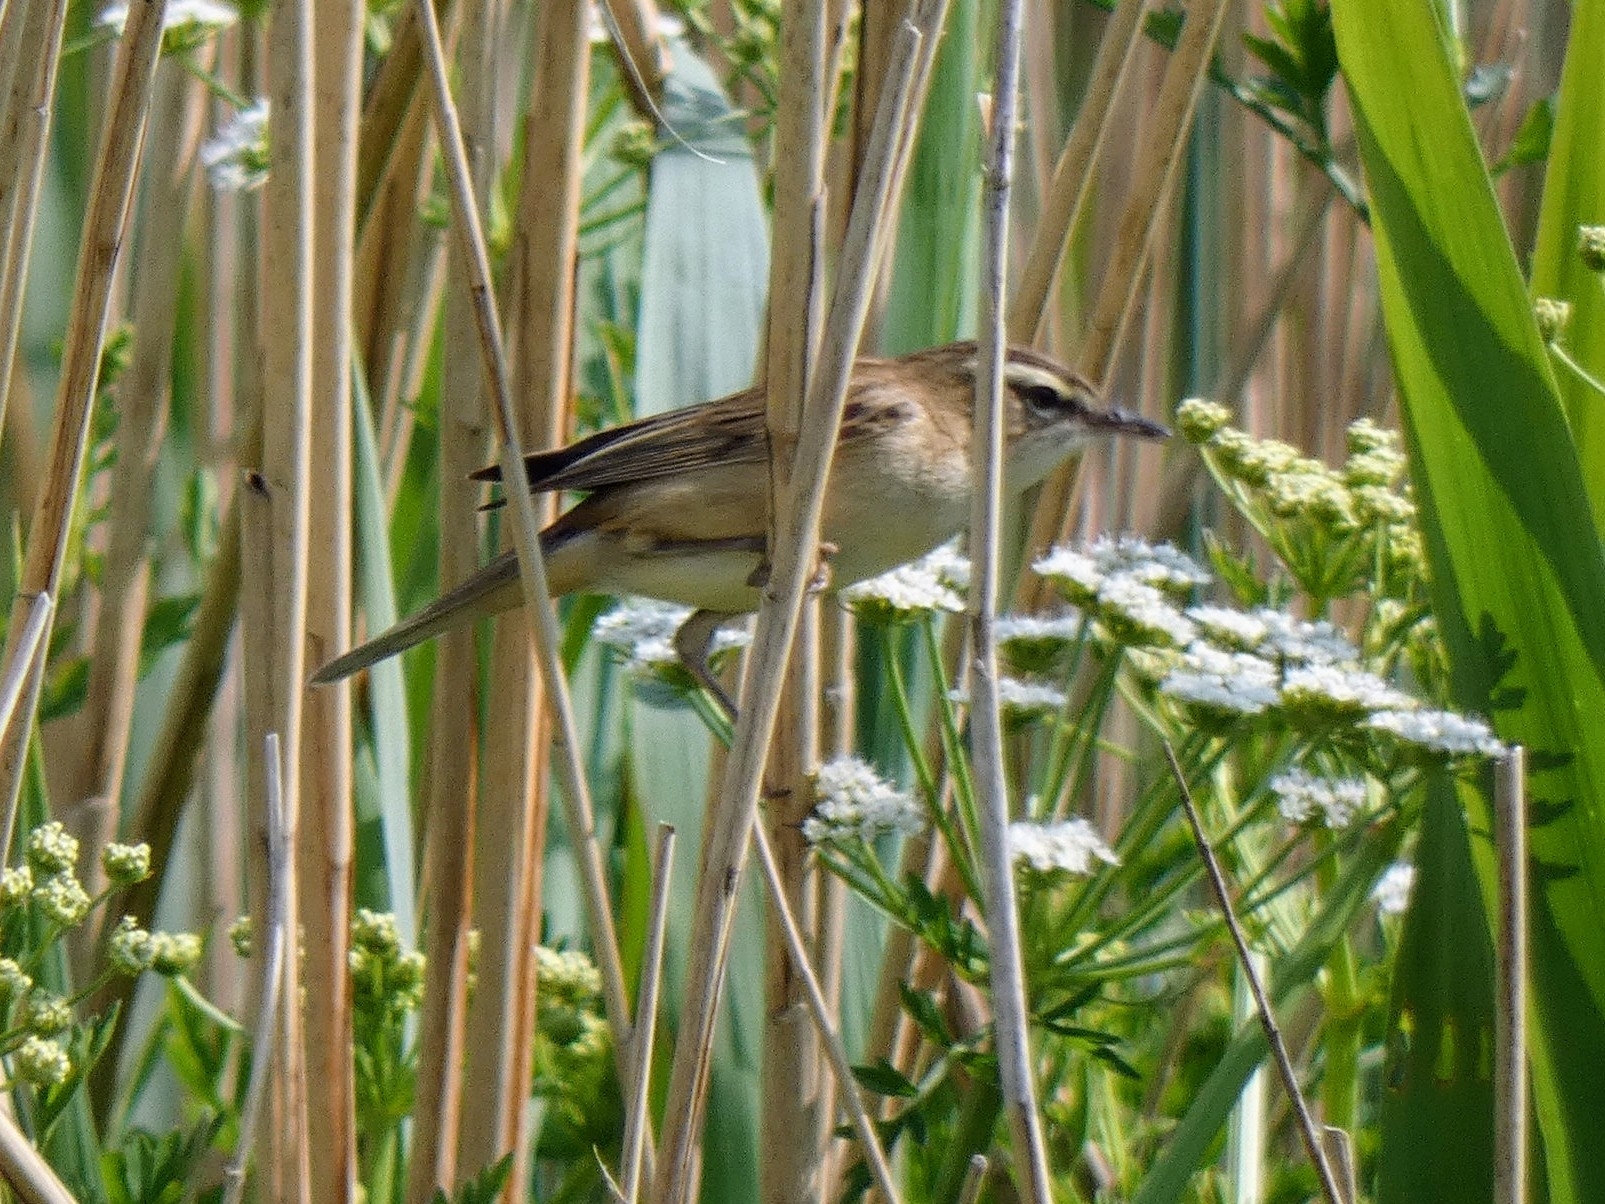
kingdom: Animalia
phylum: Chordata
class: Aves
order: Passeriformes
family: Acrocephalidae
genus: Acrocephalus
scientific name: Acrocephalus schoenobaenus
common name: Sedge warbler
